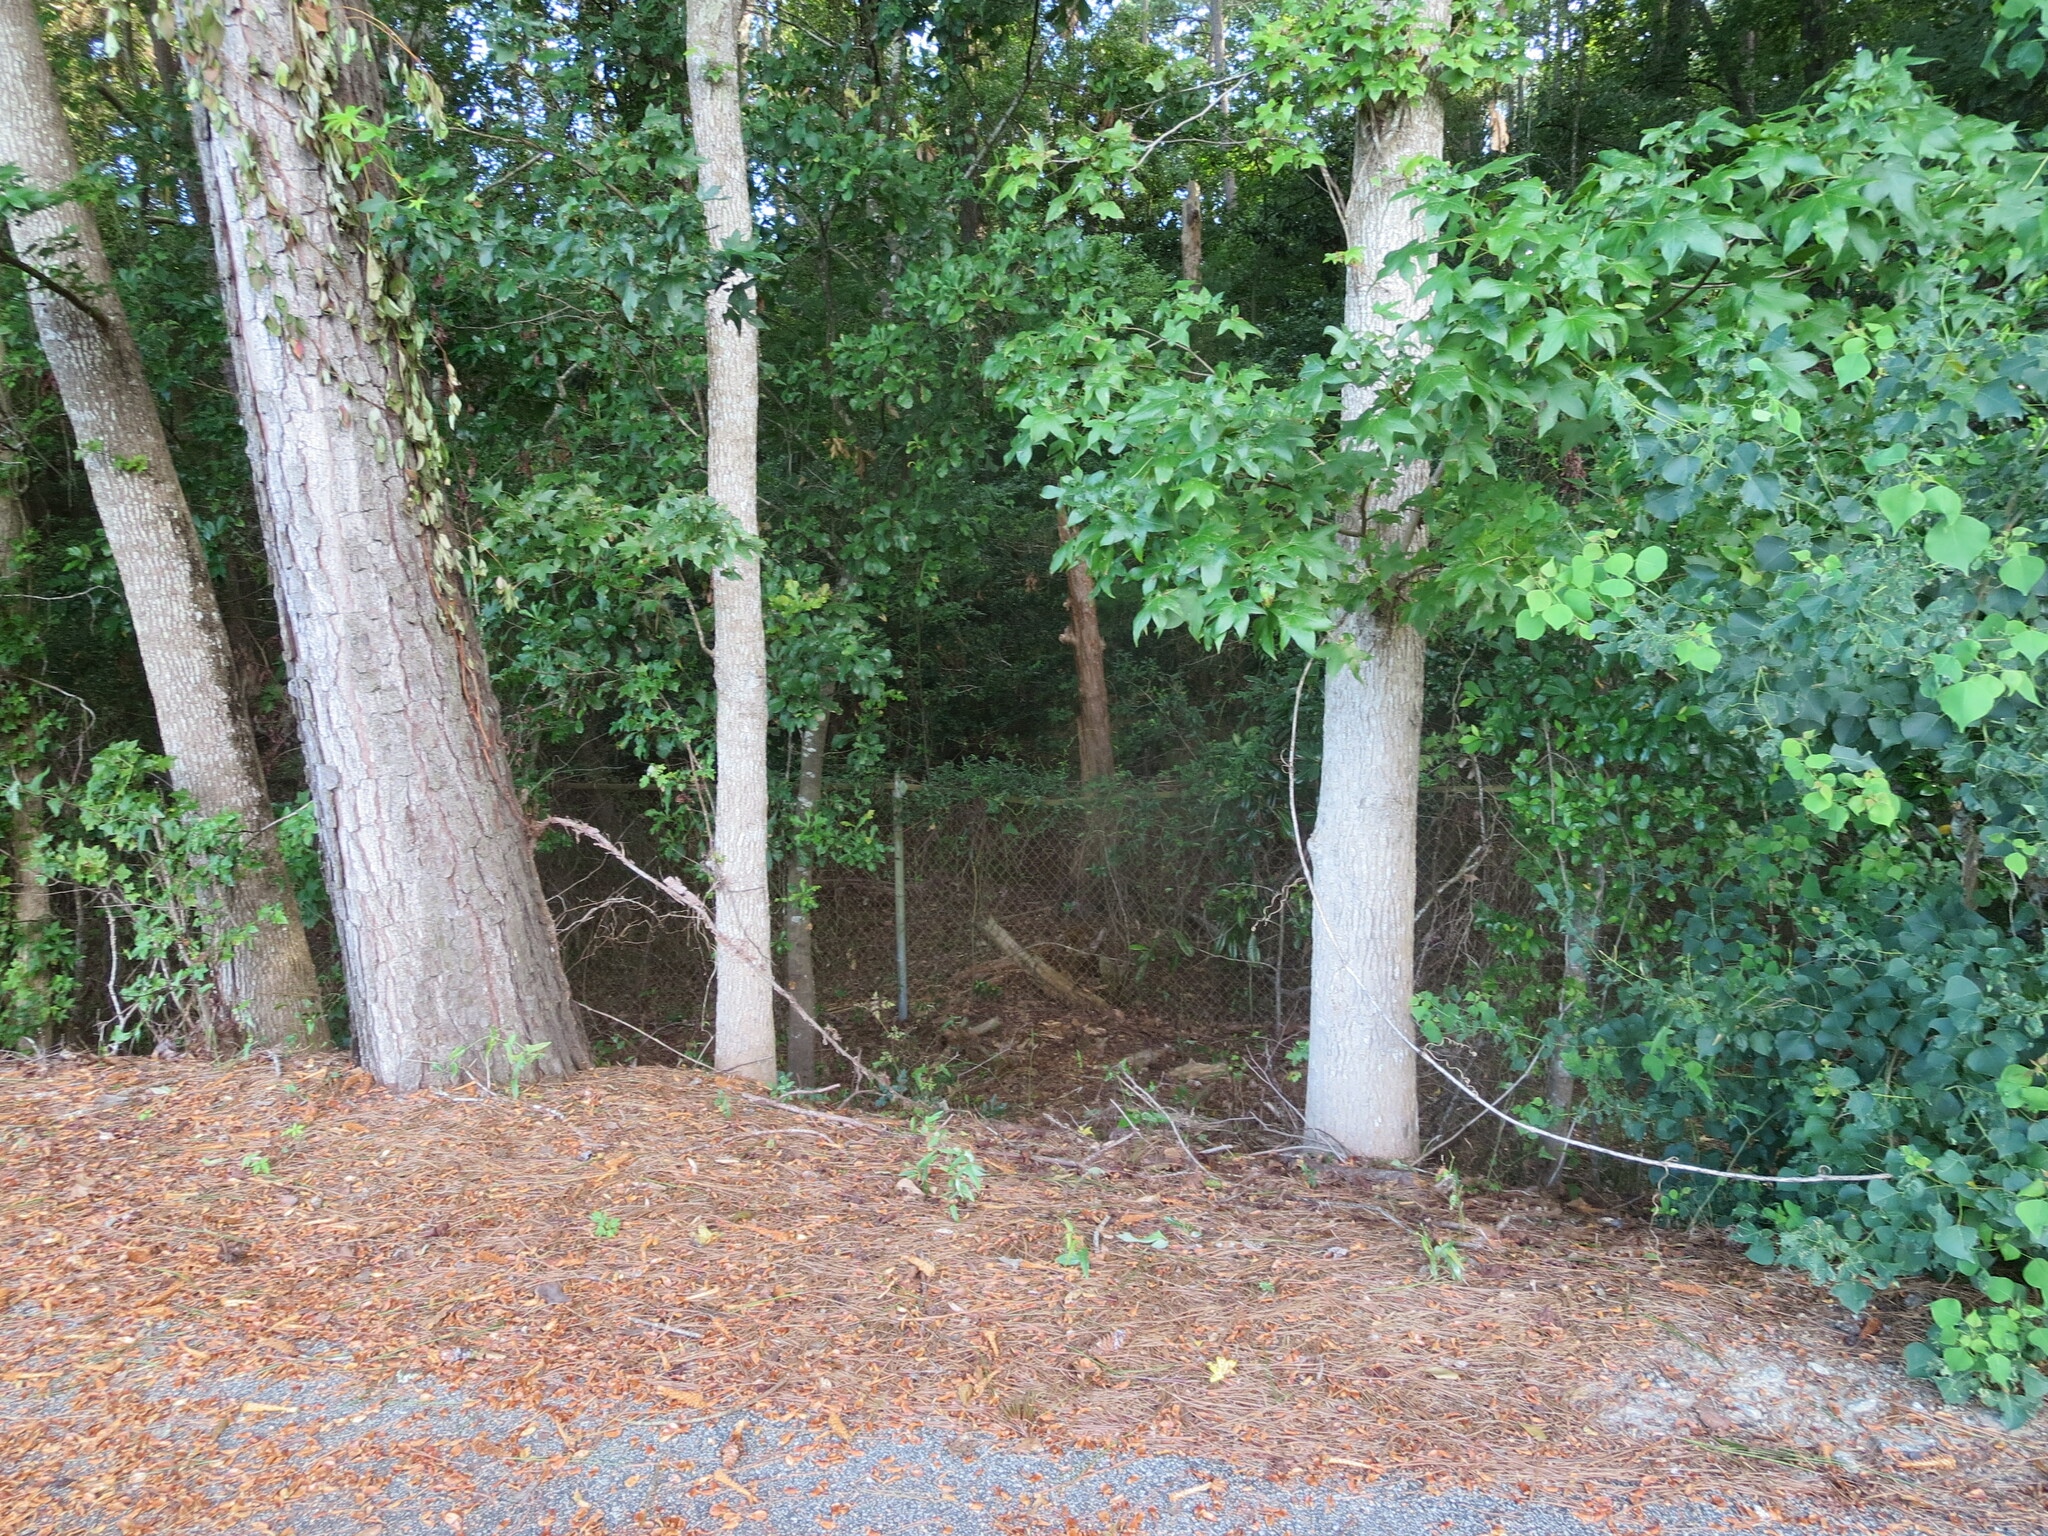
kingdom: Plantae
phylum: Tracheophyta
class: Magnoliopsida
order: Saxifragales
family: Altingiaceae
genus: Liquidambar
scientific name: Liquidambar styraciflua
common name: Sweet gum
